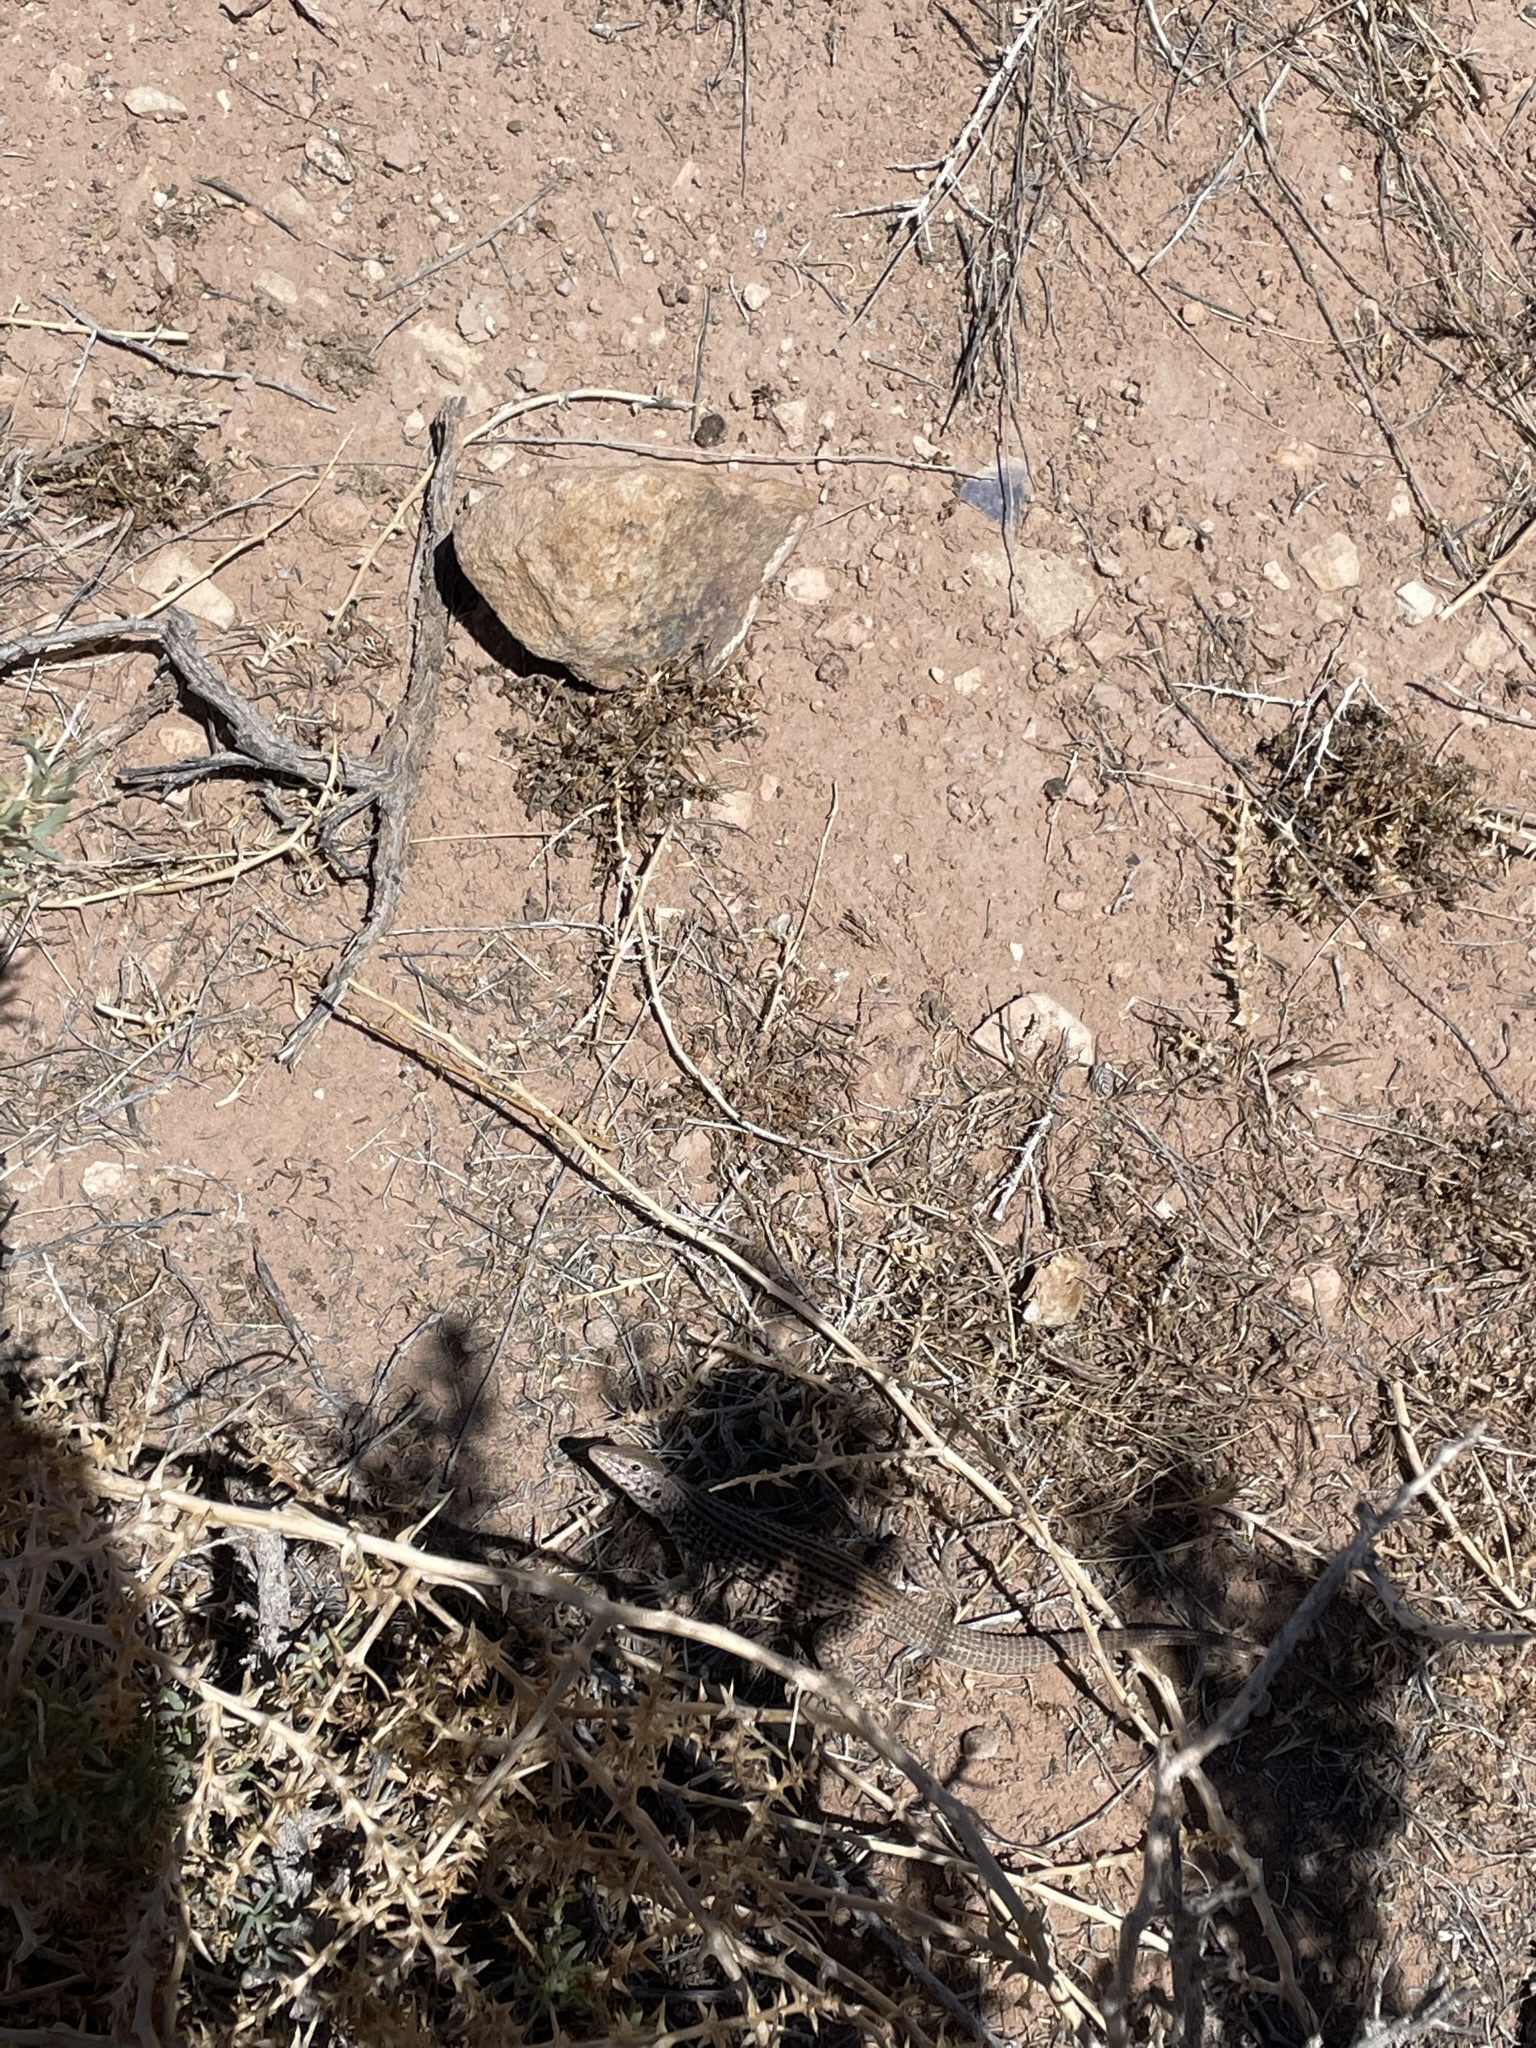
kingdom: Animalia
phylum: Chordata
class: Squamata
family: Teiidae
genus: Aspidoscelis
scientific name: Aspidoscelis tigris
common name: Tiger whiptail
